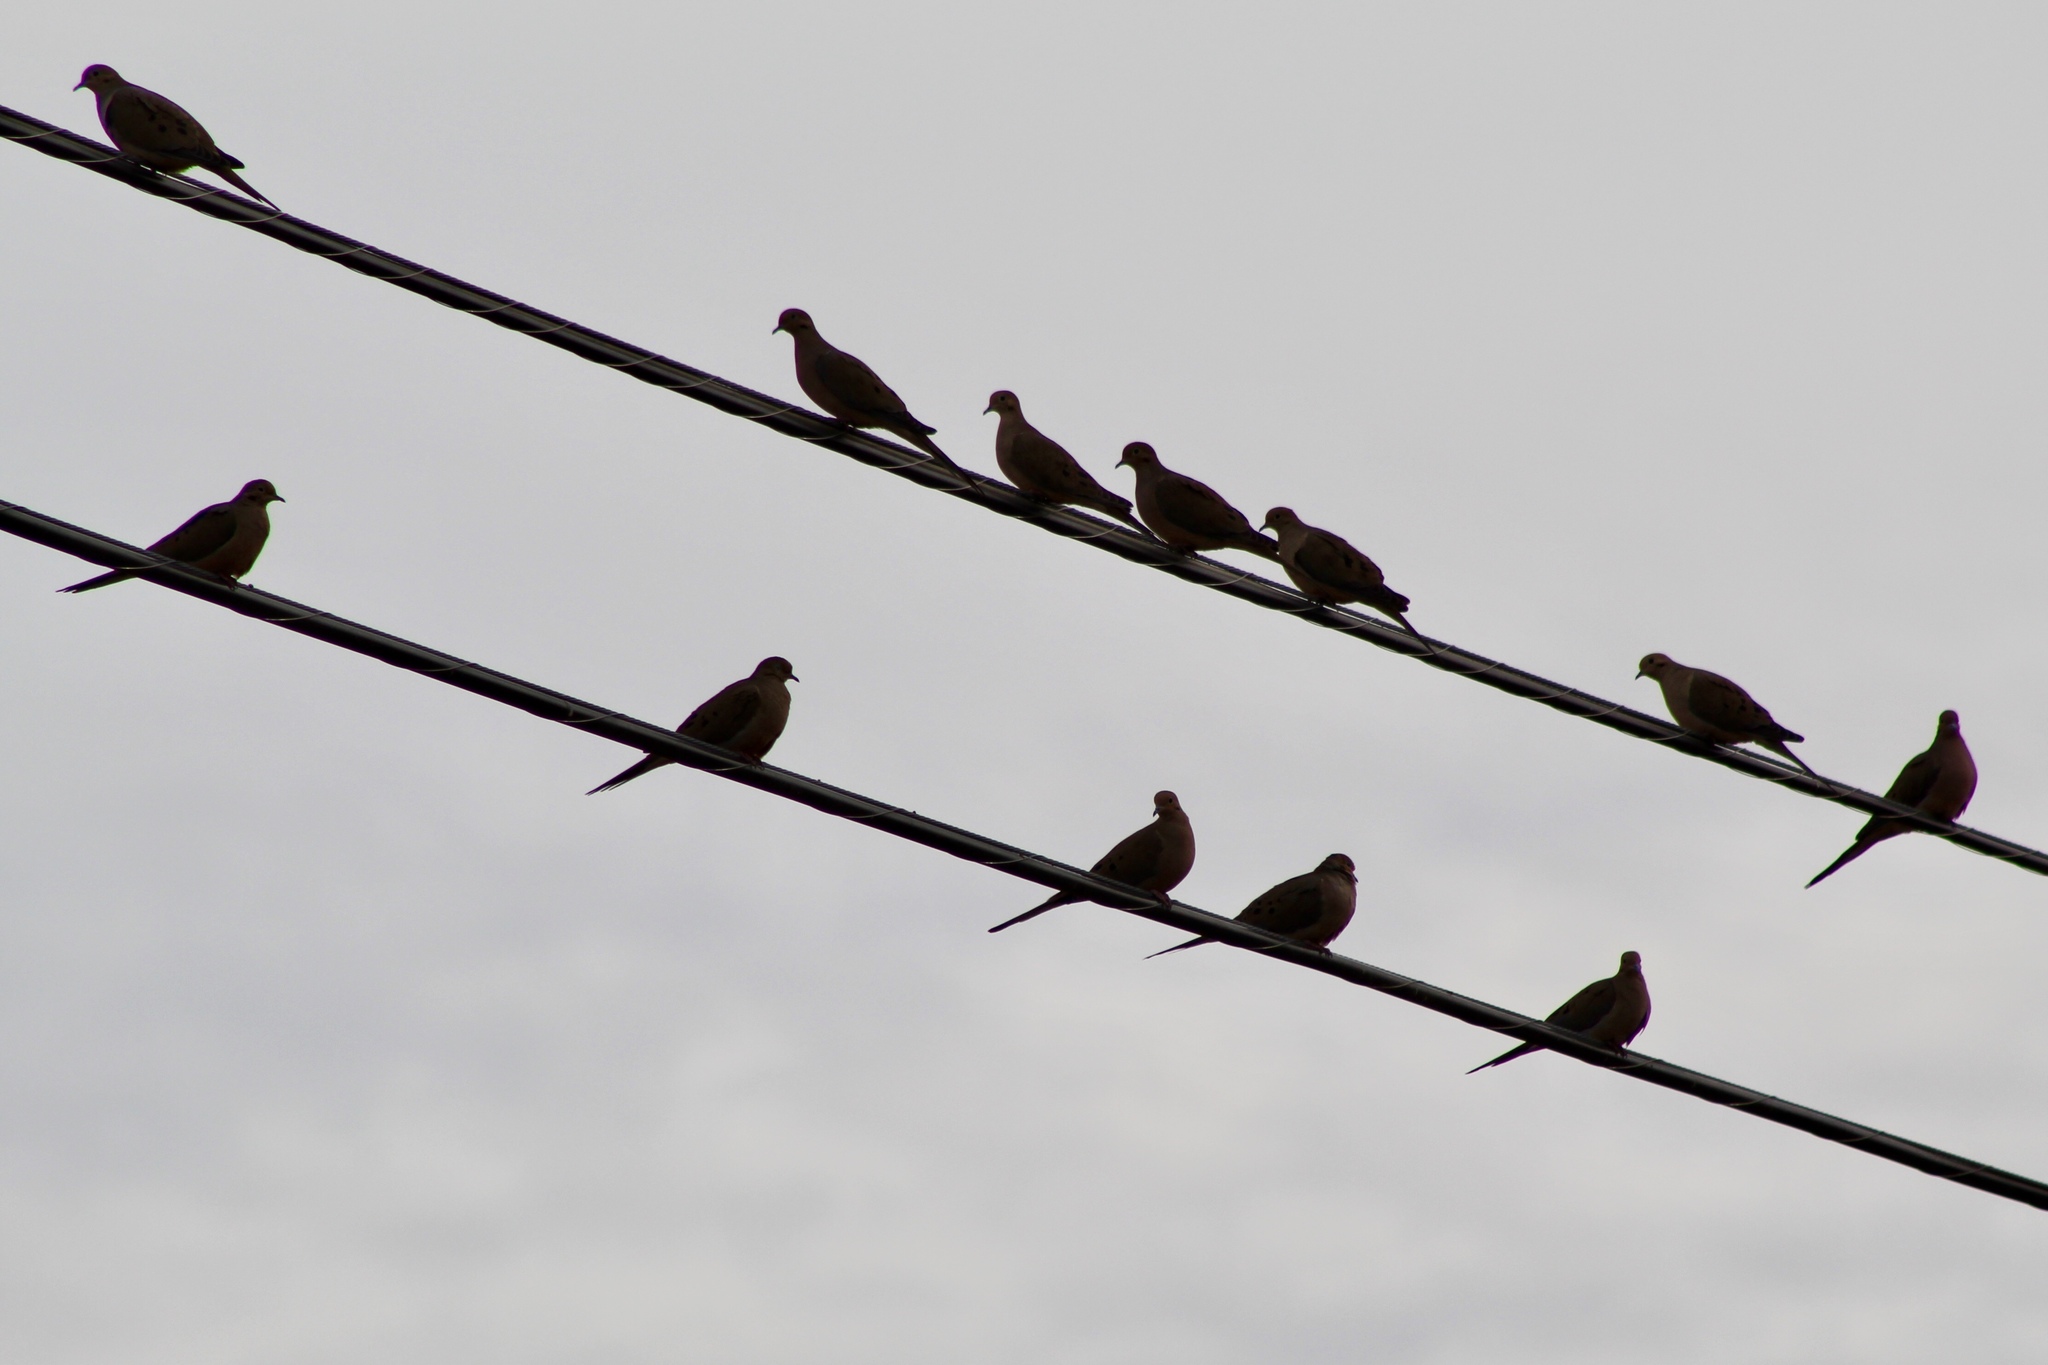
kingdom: Animalia
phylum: Chordata
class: Aves
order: Columbiformes
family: Columbidae
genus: Zenaida
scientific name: Zenaida macroura
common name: Mourning dove
